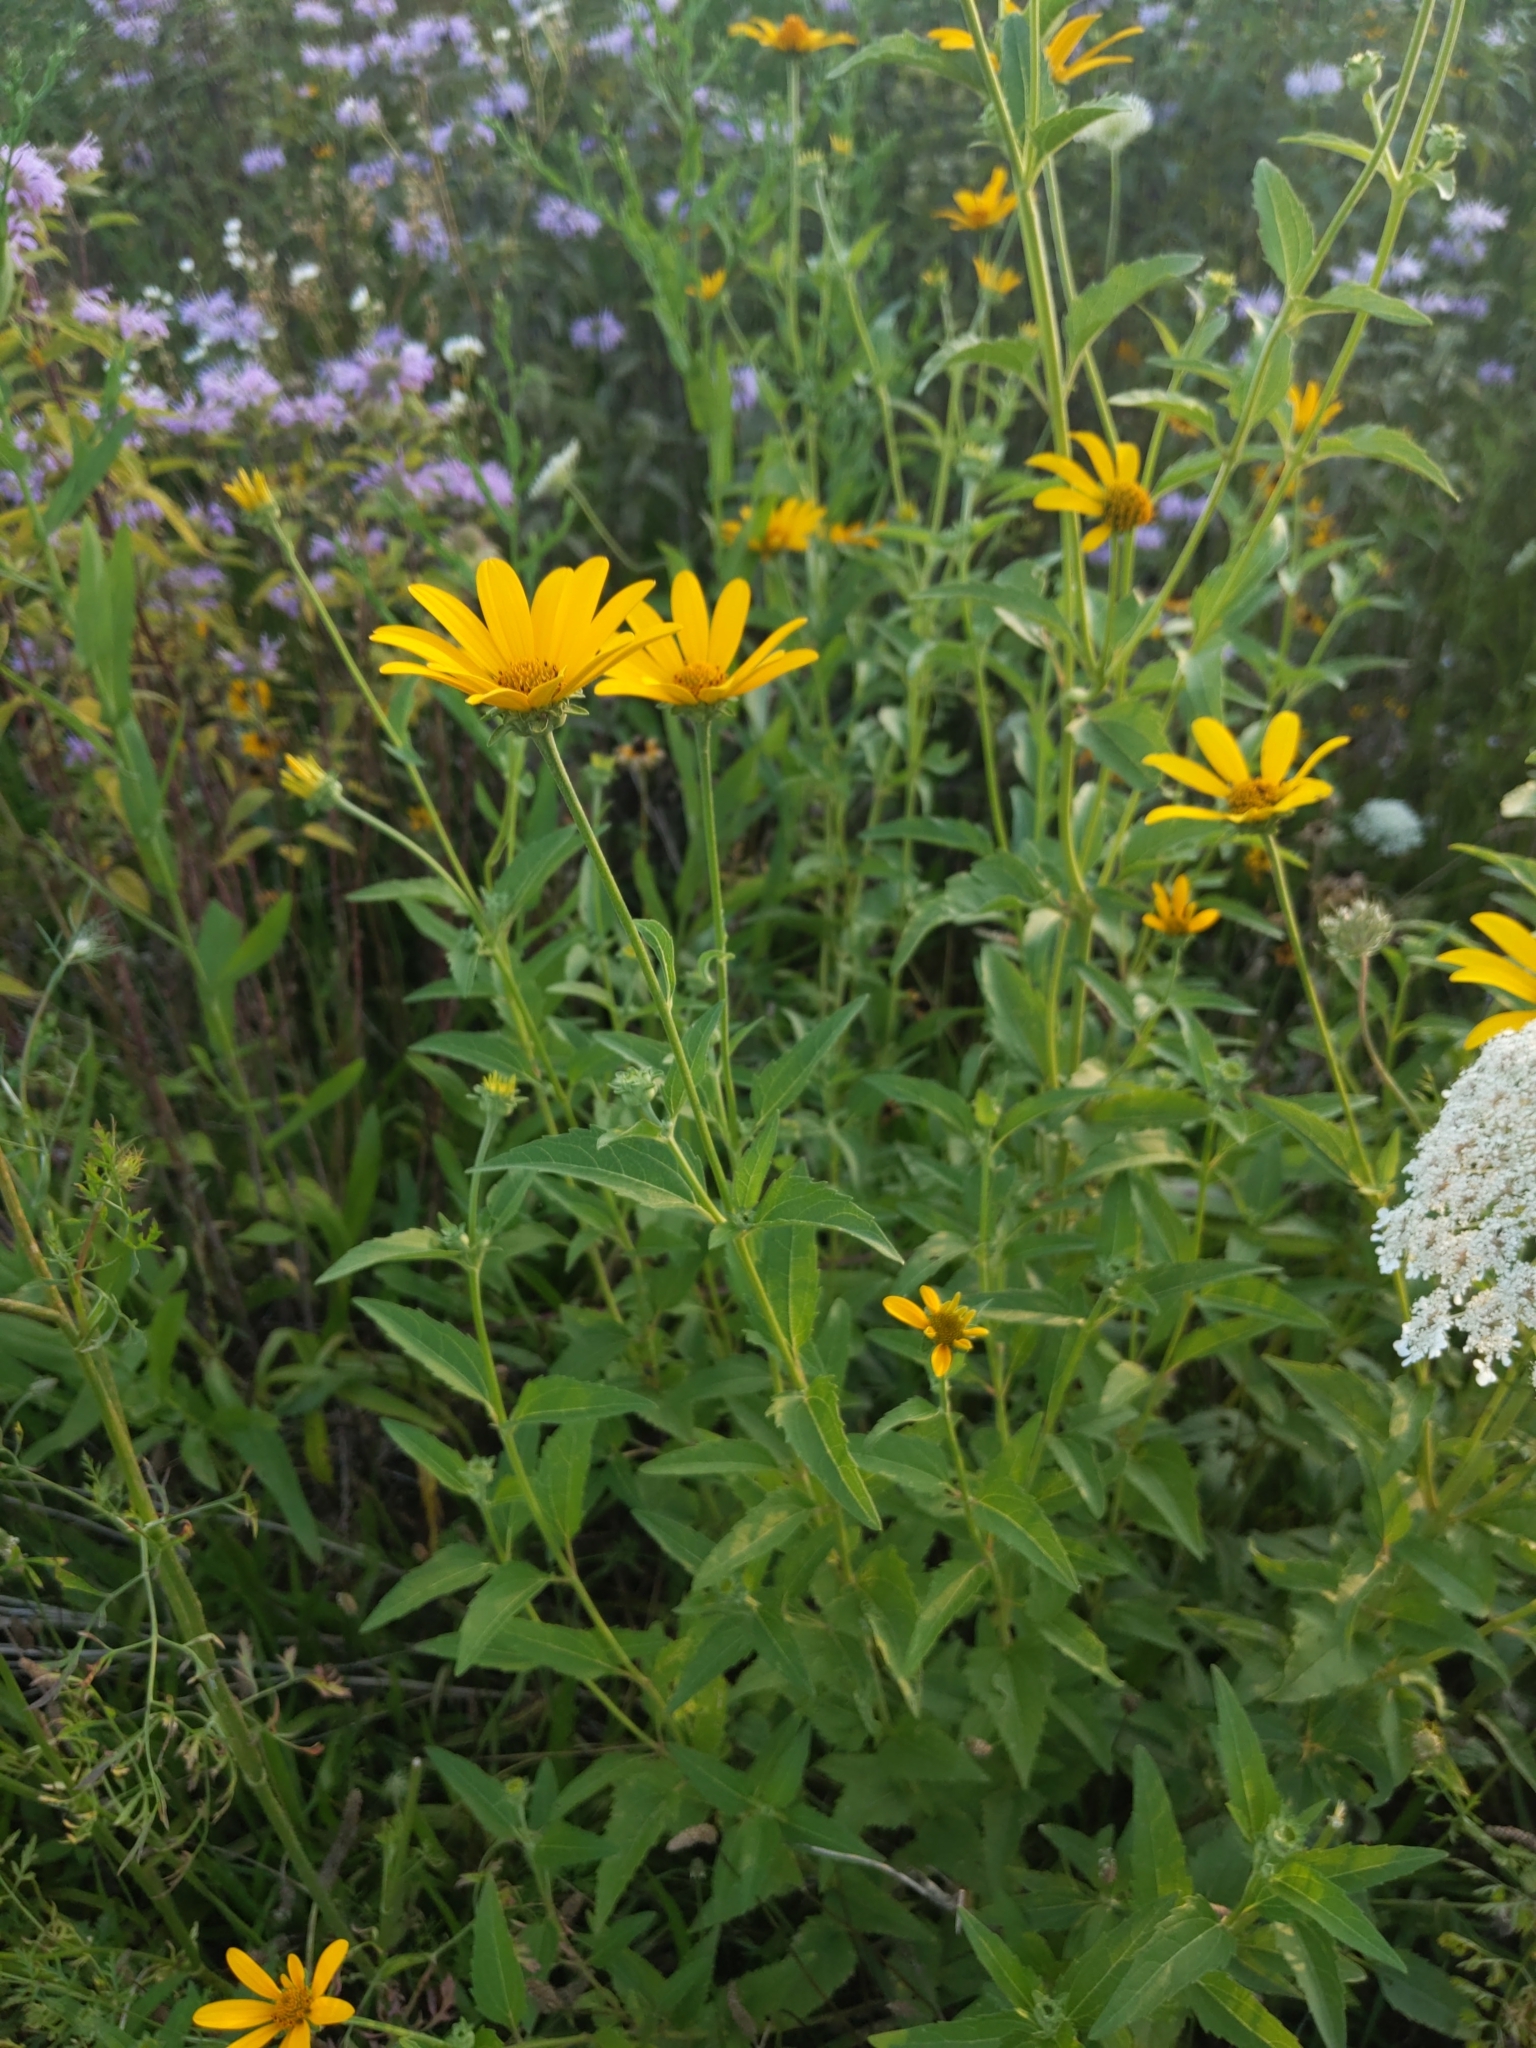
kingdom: Plantae
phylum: Tracheophyta
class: Magnoliopsida
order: Asterales
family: Asteraceae
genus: Heliopsis
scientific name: Heliopsis helianthoides
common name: False sunflower
